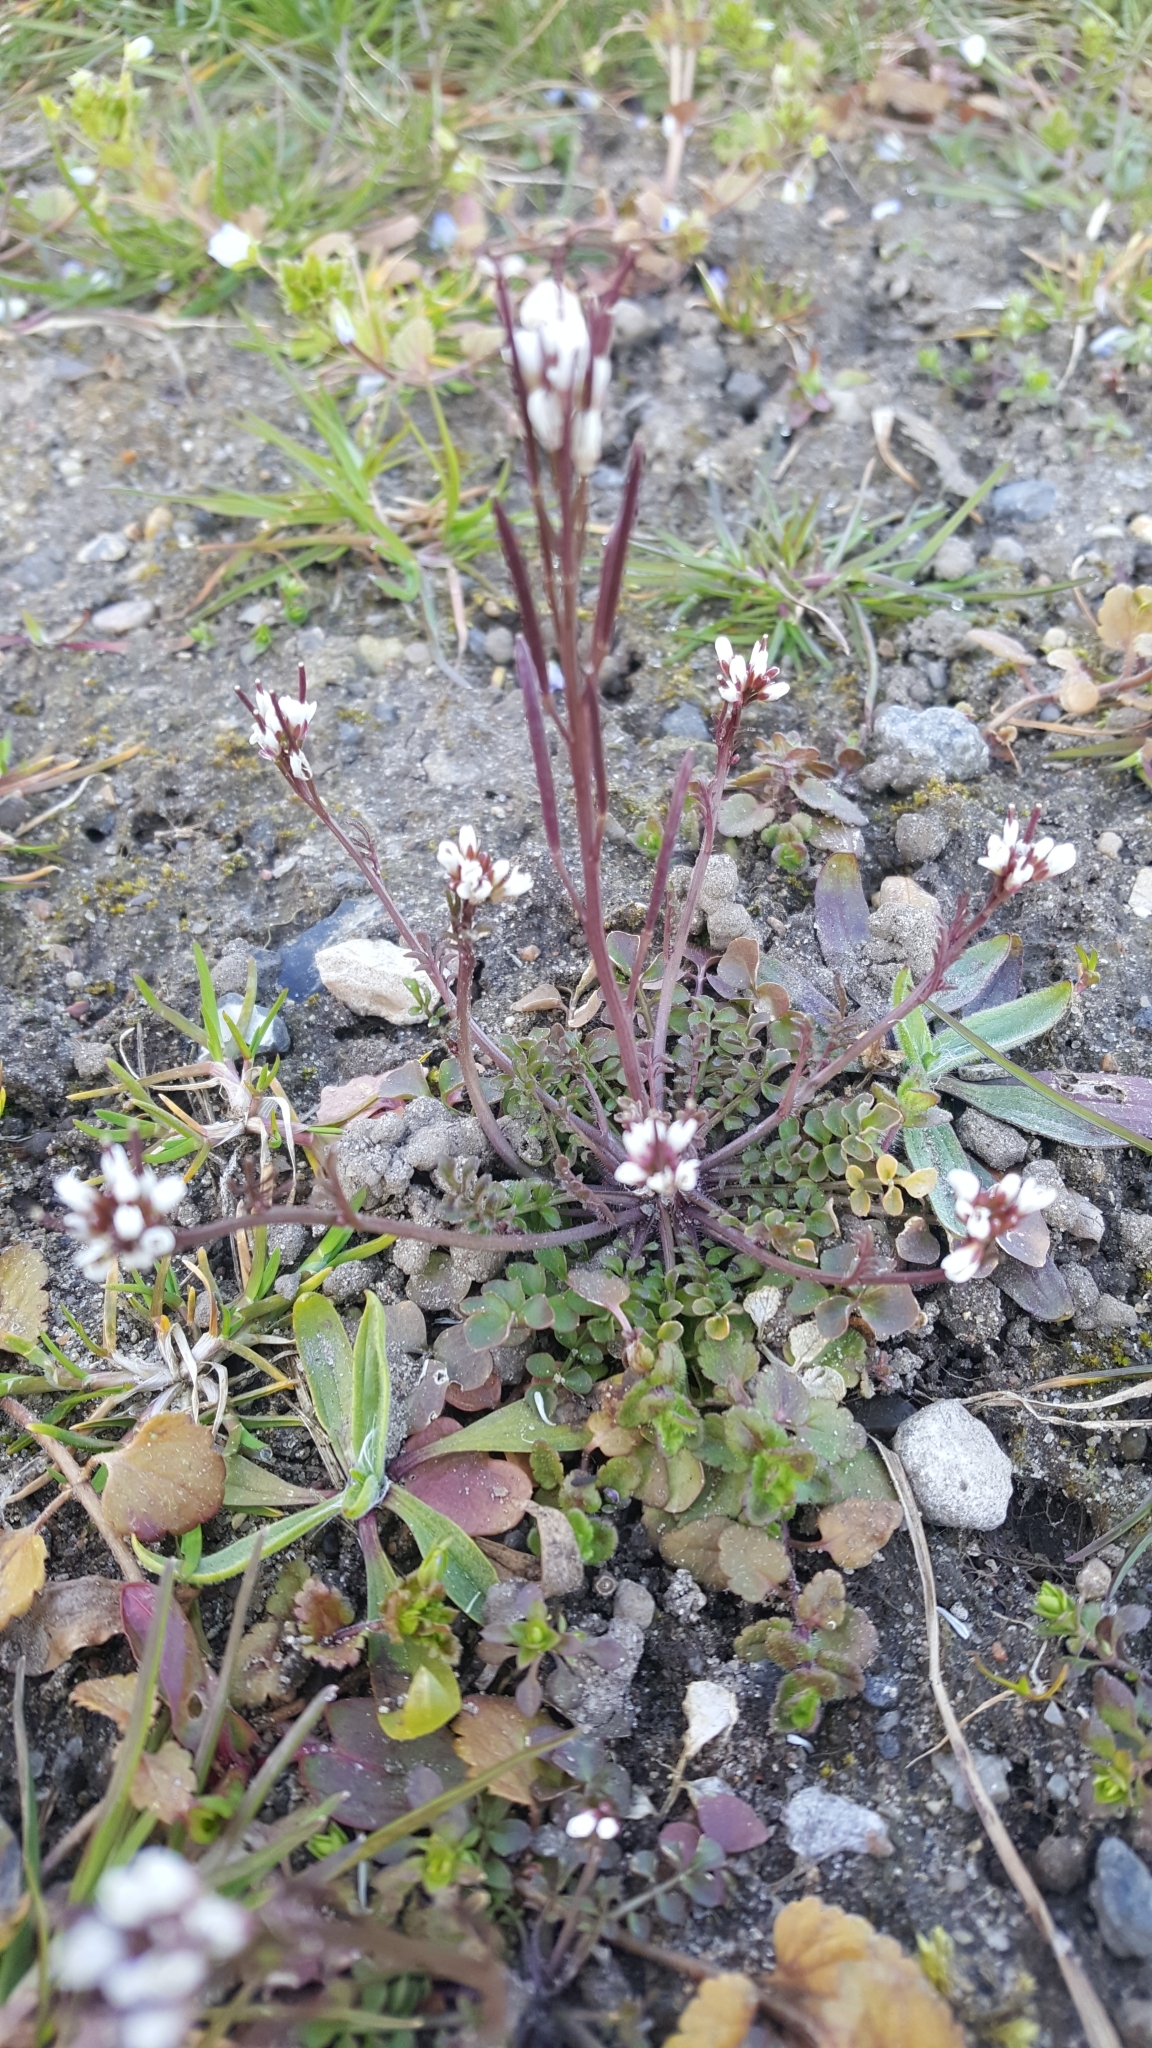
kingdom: Plantae
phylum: Tracheophyta
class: Magnoliopsida
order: Brassicales
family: Brassicaceae
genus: Cardamine
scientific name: Cardamine hirsuta
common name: Hairy bittercress
